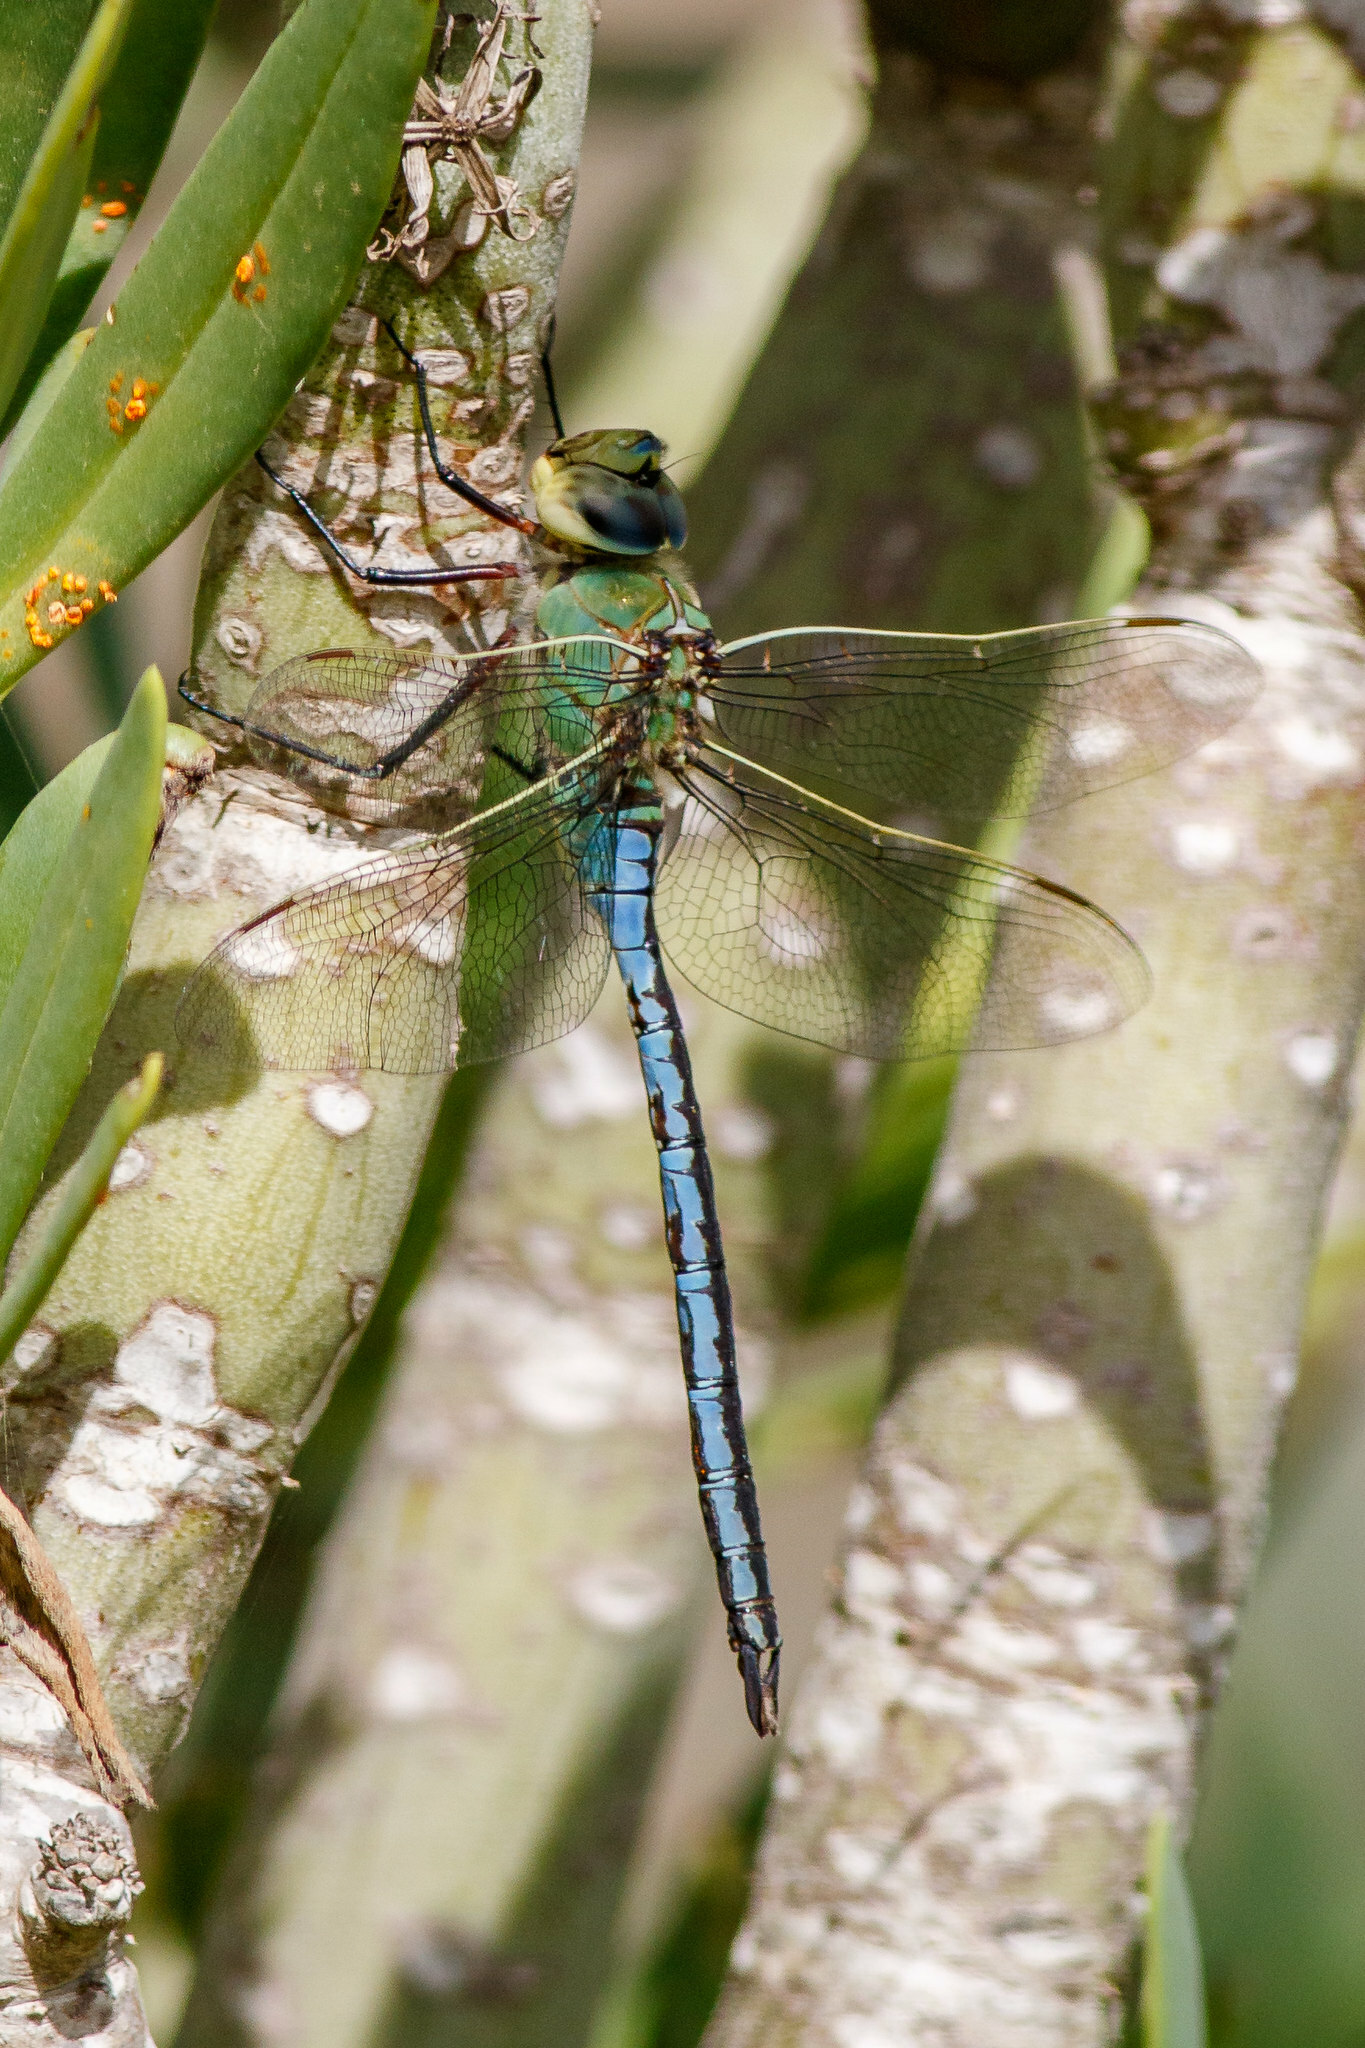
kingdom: Animalia
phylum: Arthropoda
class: Insecta
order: Odonata
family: Aeshnidae
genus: Anax
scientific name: Anax imperator
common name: Emperor dragonfly
